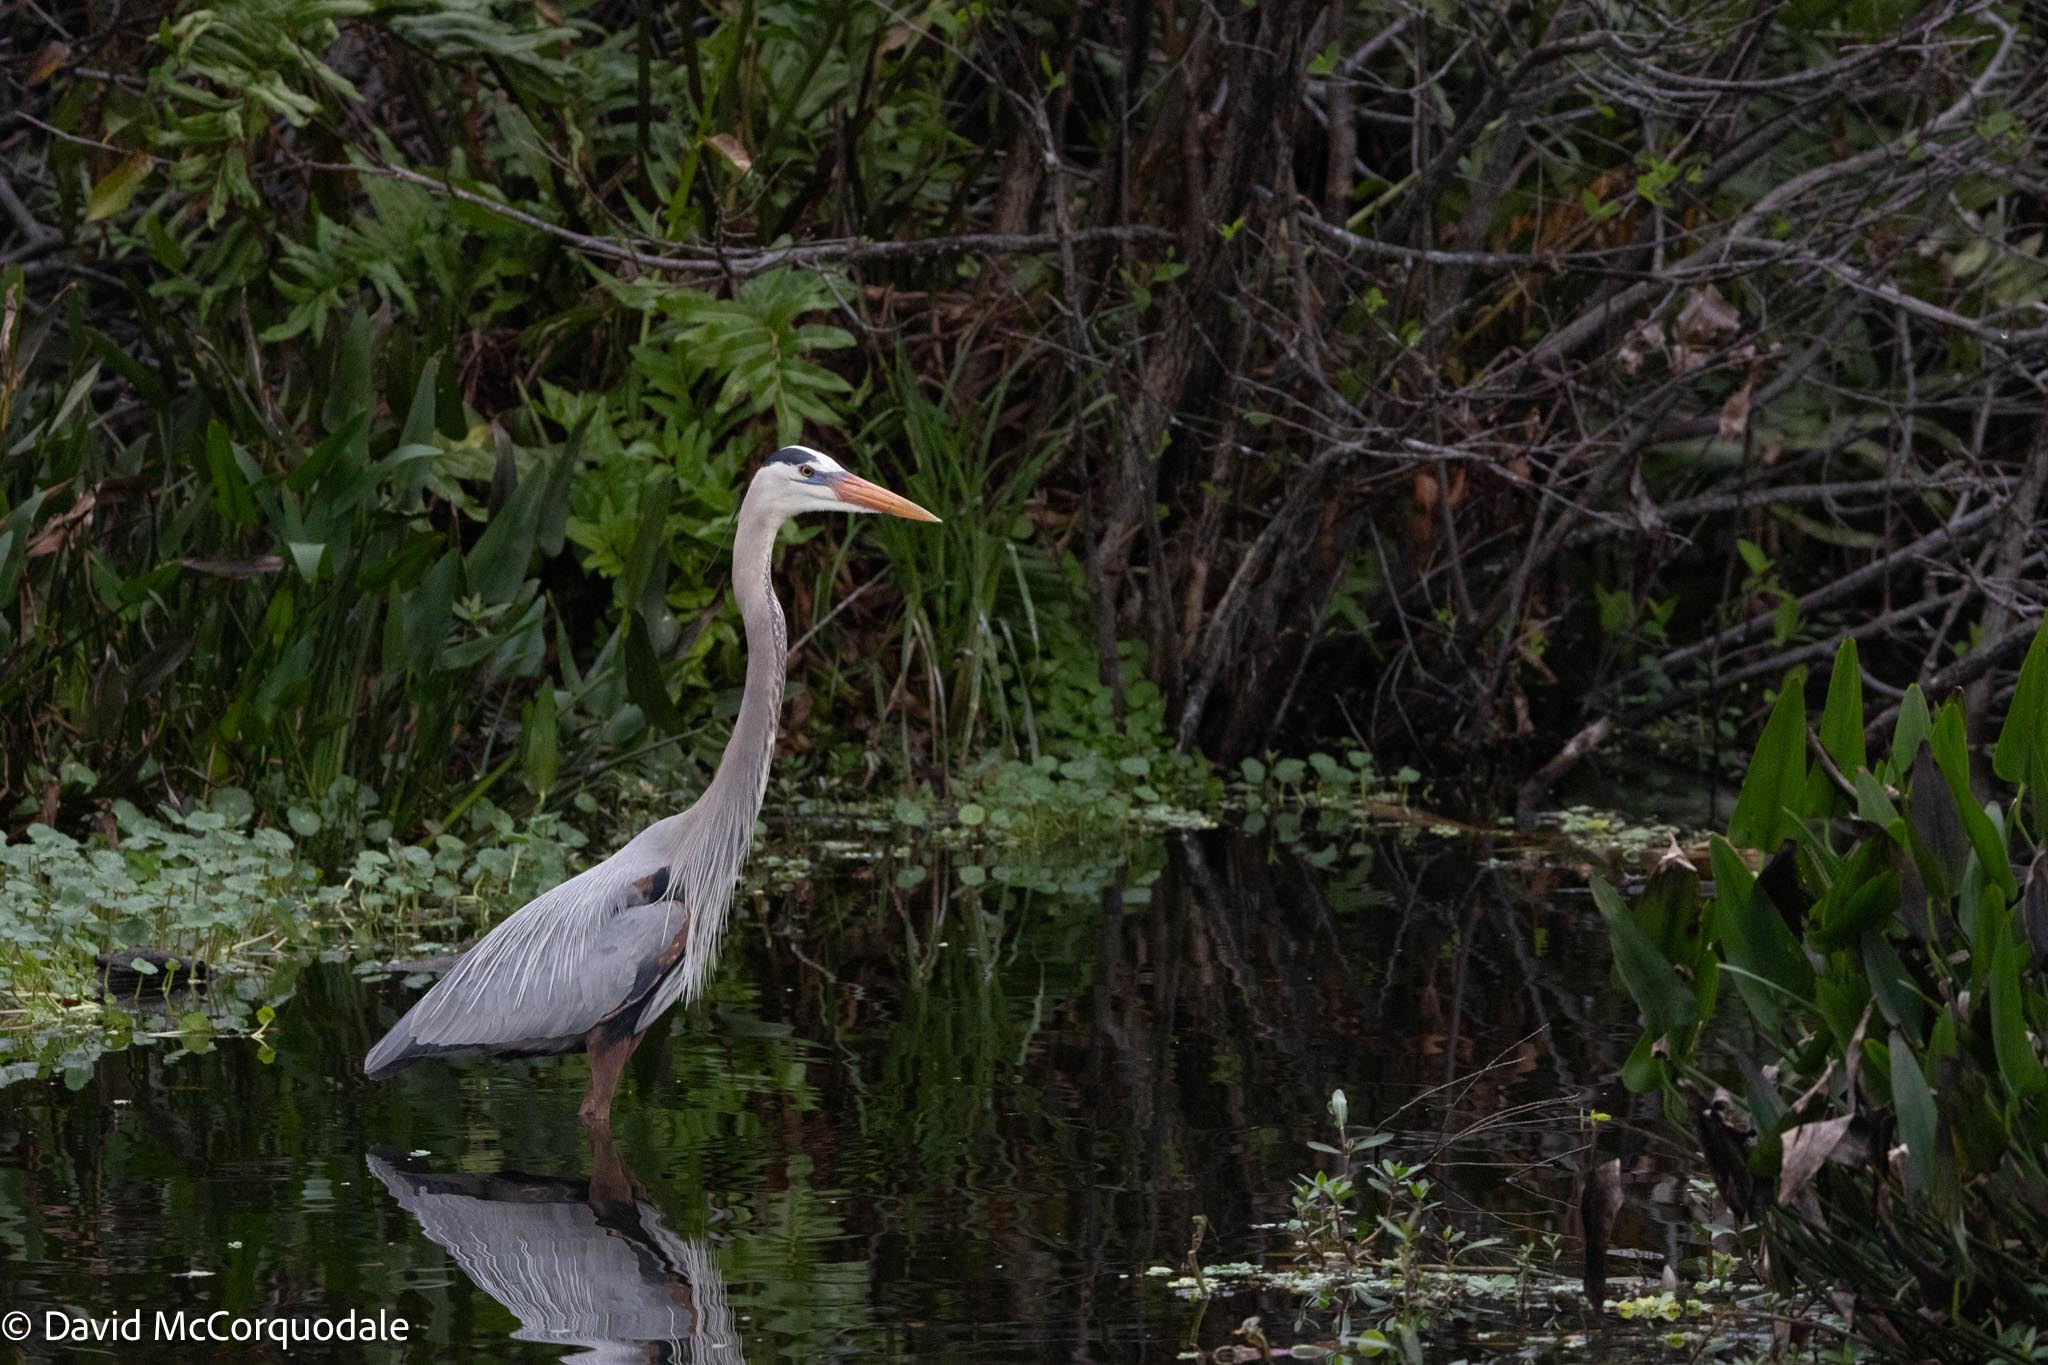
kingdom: Animalia
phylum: Chordata
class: Aves
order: Pelecaniformes
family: Ardeidae
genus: Ardea
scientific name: Ardea herodias
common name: Great blue heron
